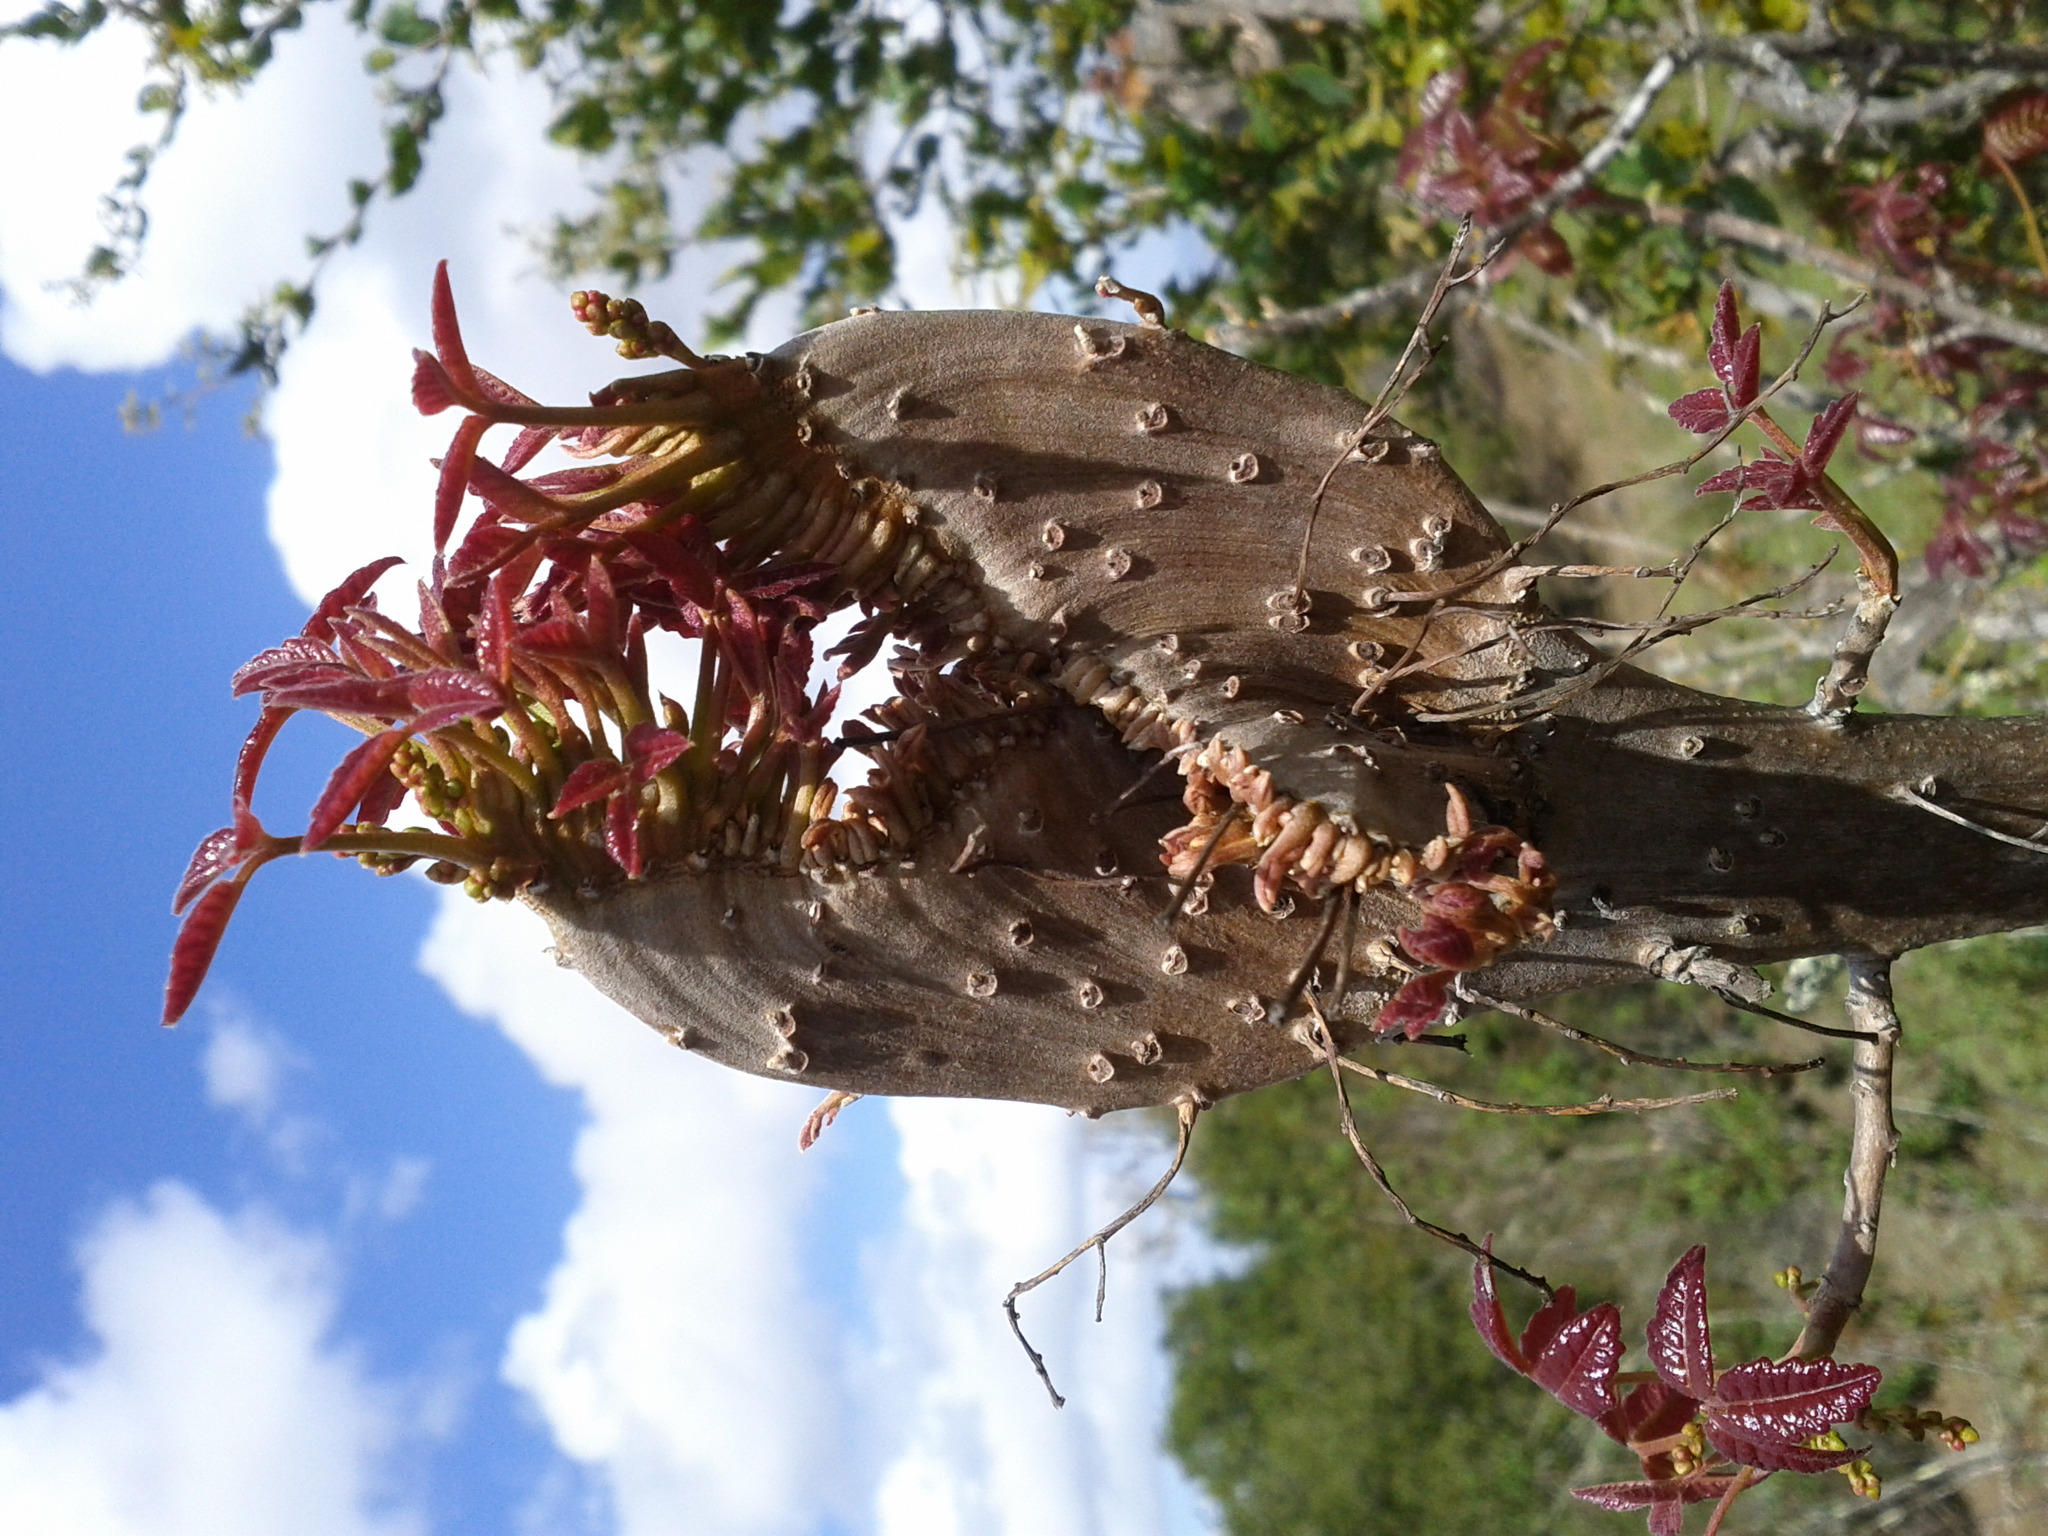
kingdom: Plantae
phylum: Tracheophyta
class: Magnoliopsida
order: Sapindales
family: Anacardiaceae
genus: Toxicodendron
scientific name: Toxicodendron diversilobum
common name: Pacific poison-oak
